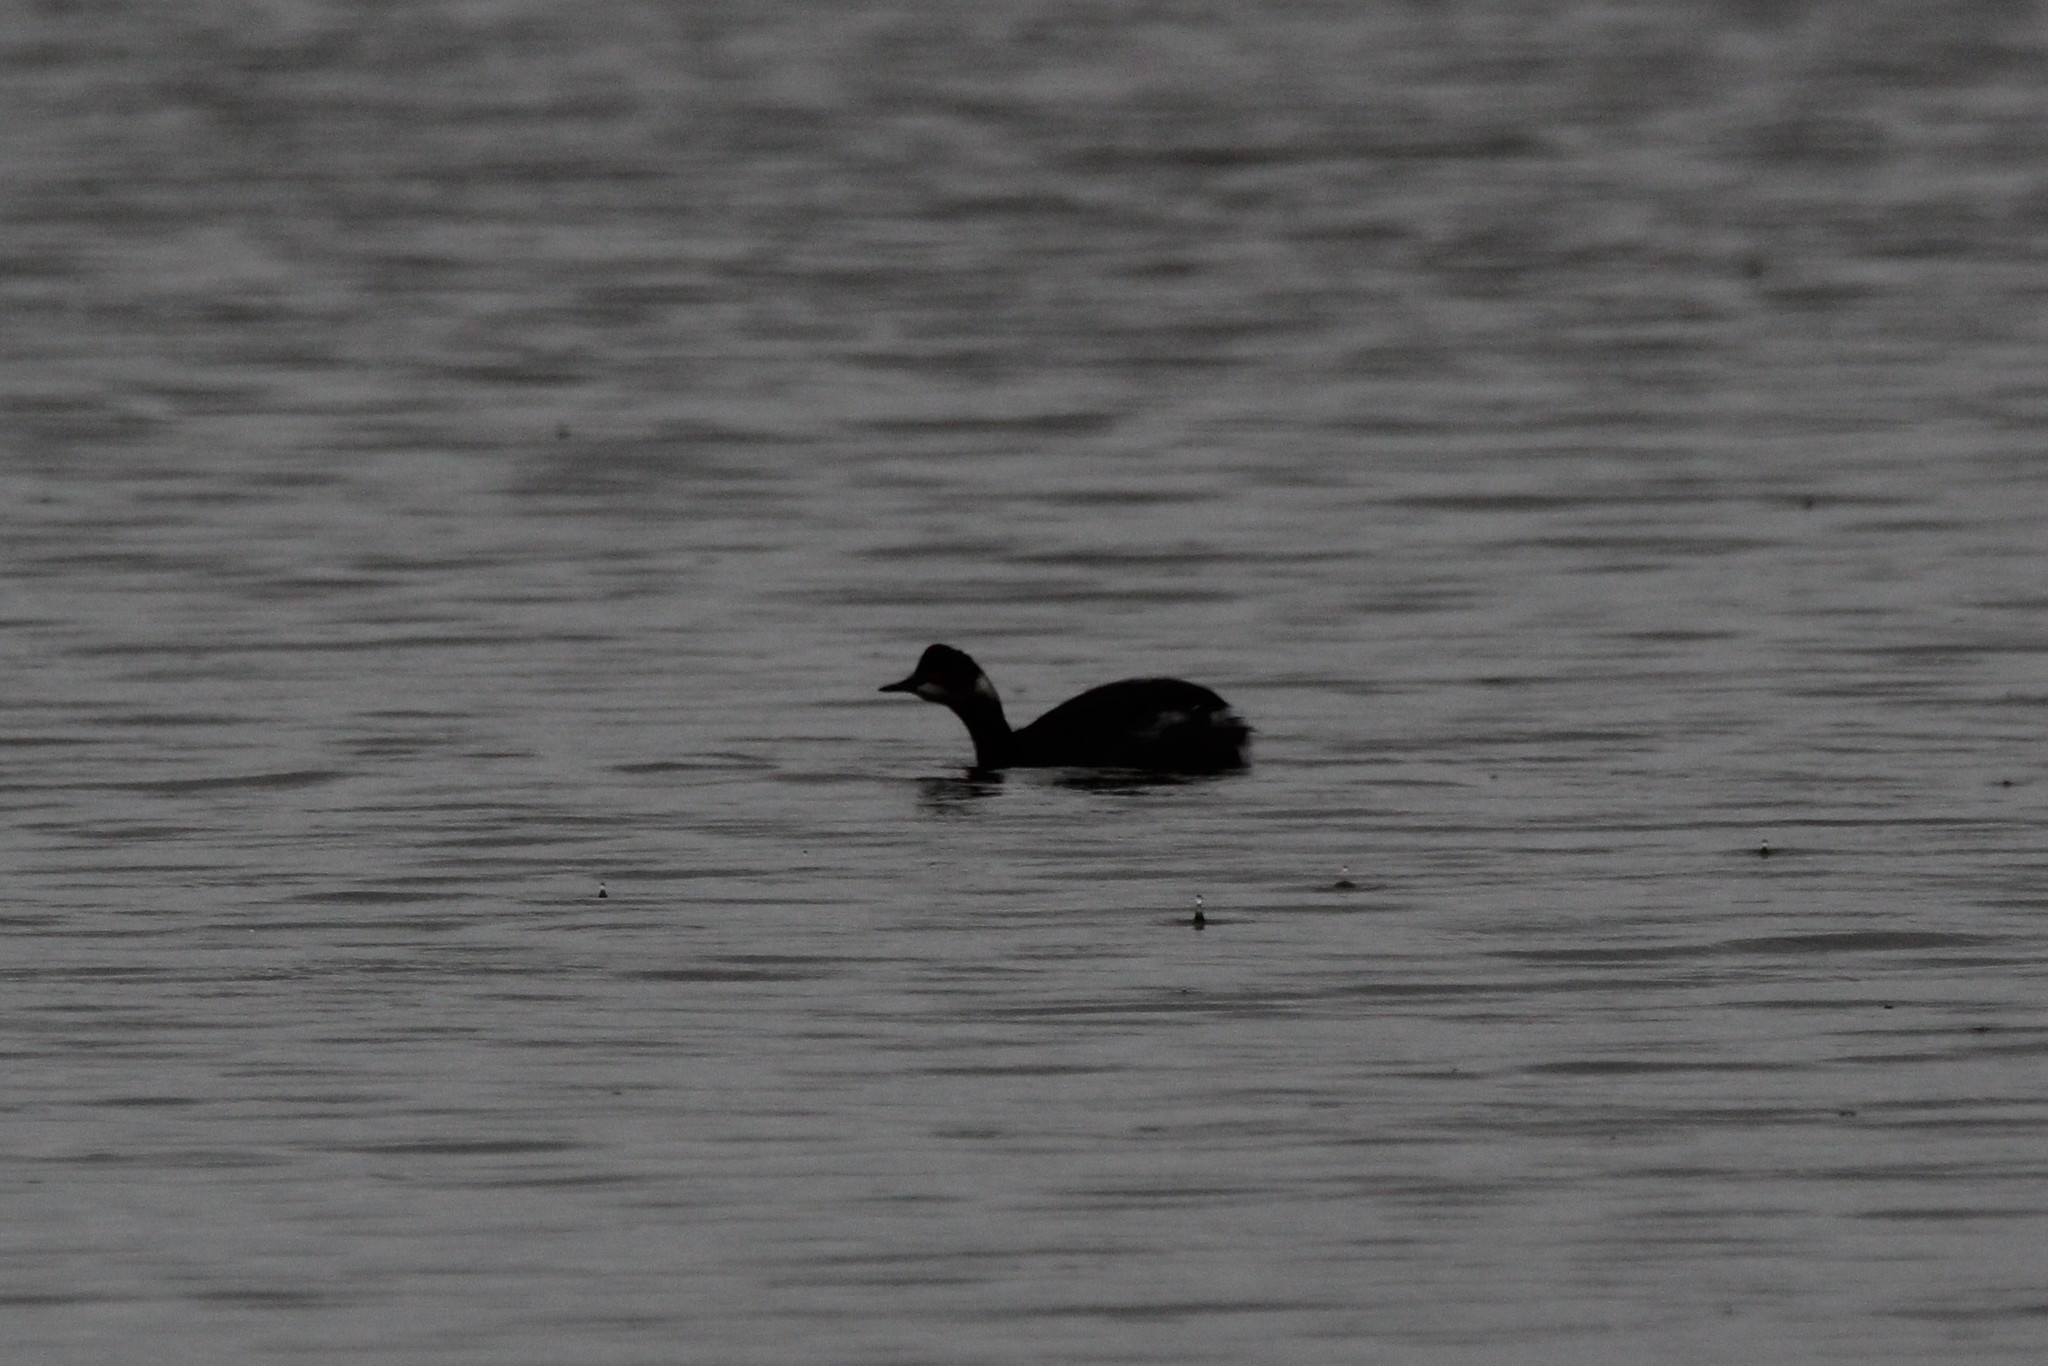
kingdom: Animalia
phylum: Chordata
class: Aves
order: Podicipediformes
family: Podicipedidae
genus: Podiceps
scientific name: Podiceps nigricollis
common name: Black-necked grebe
